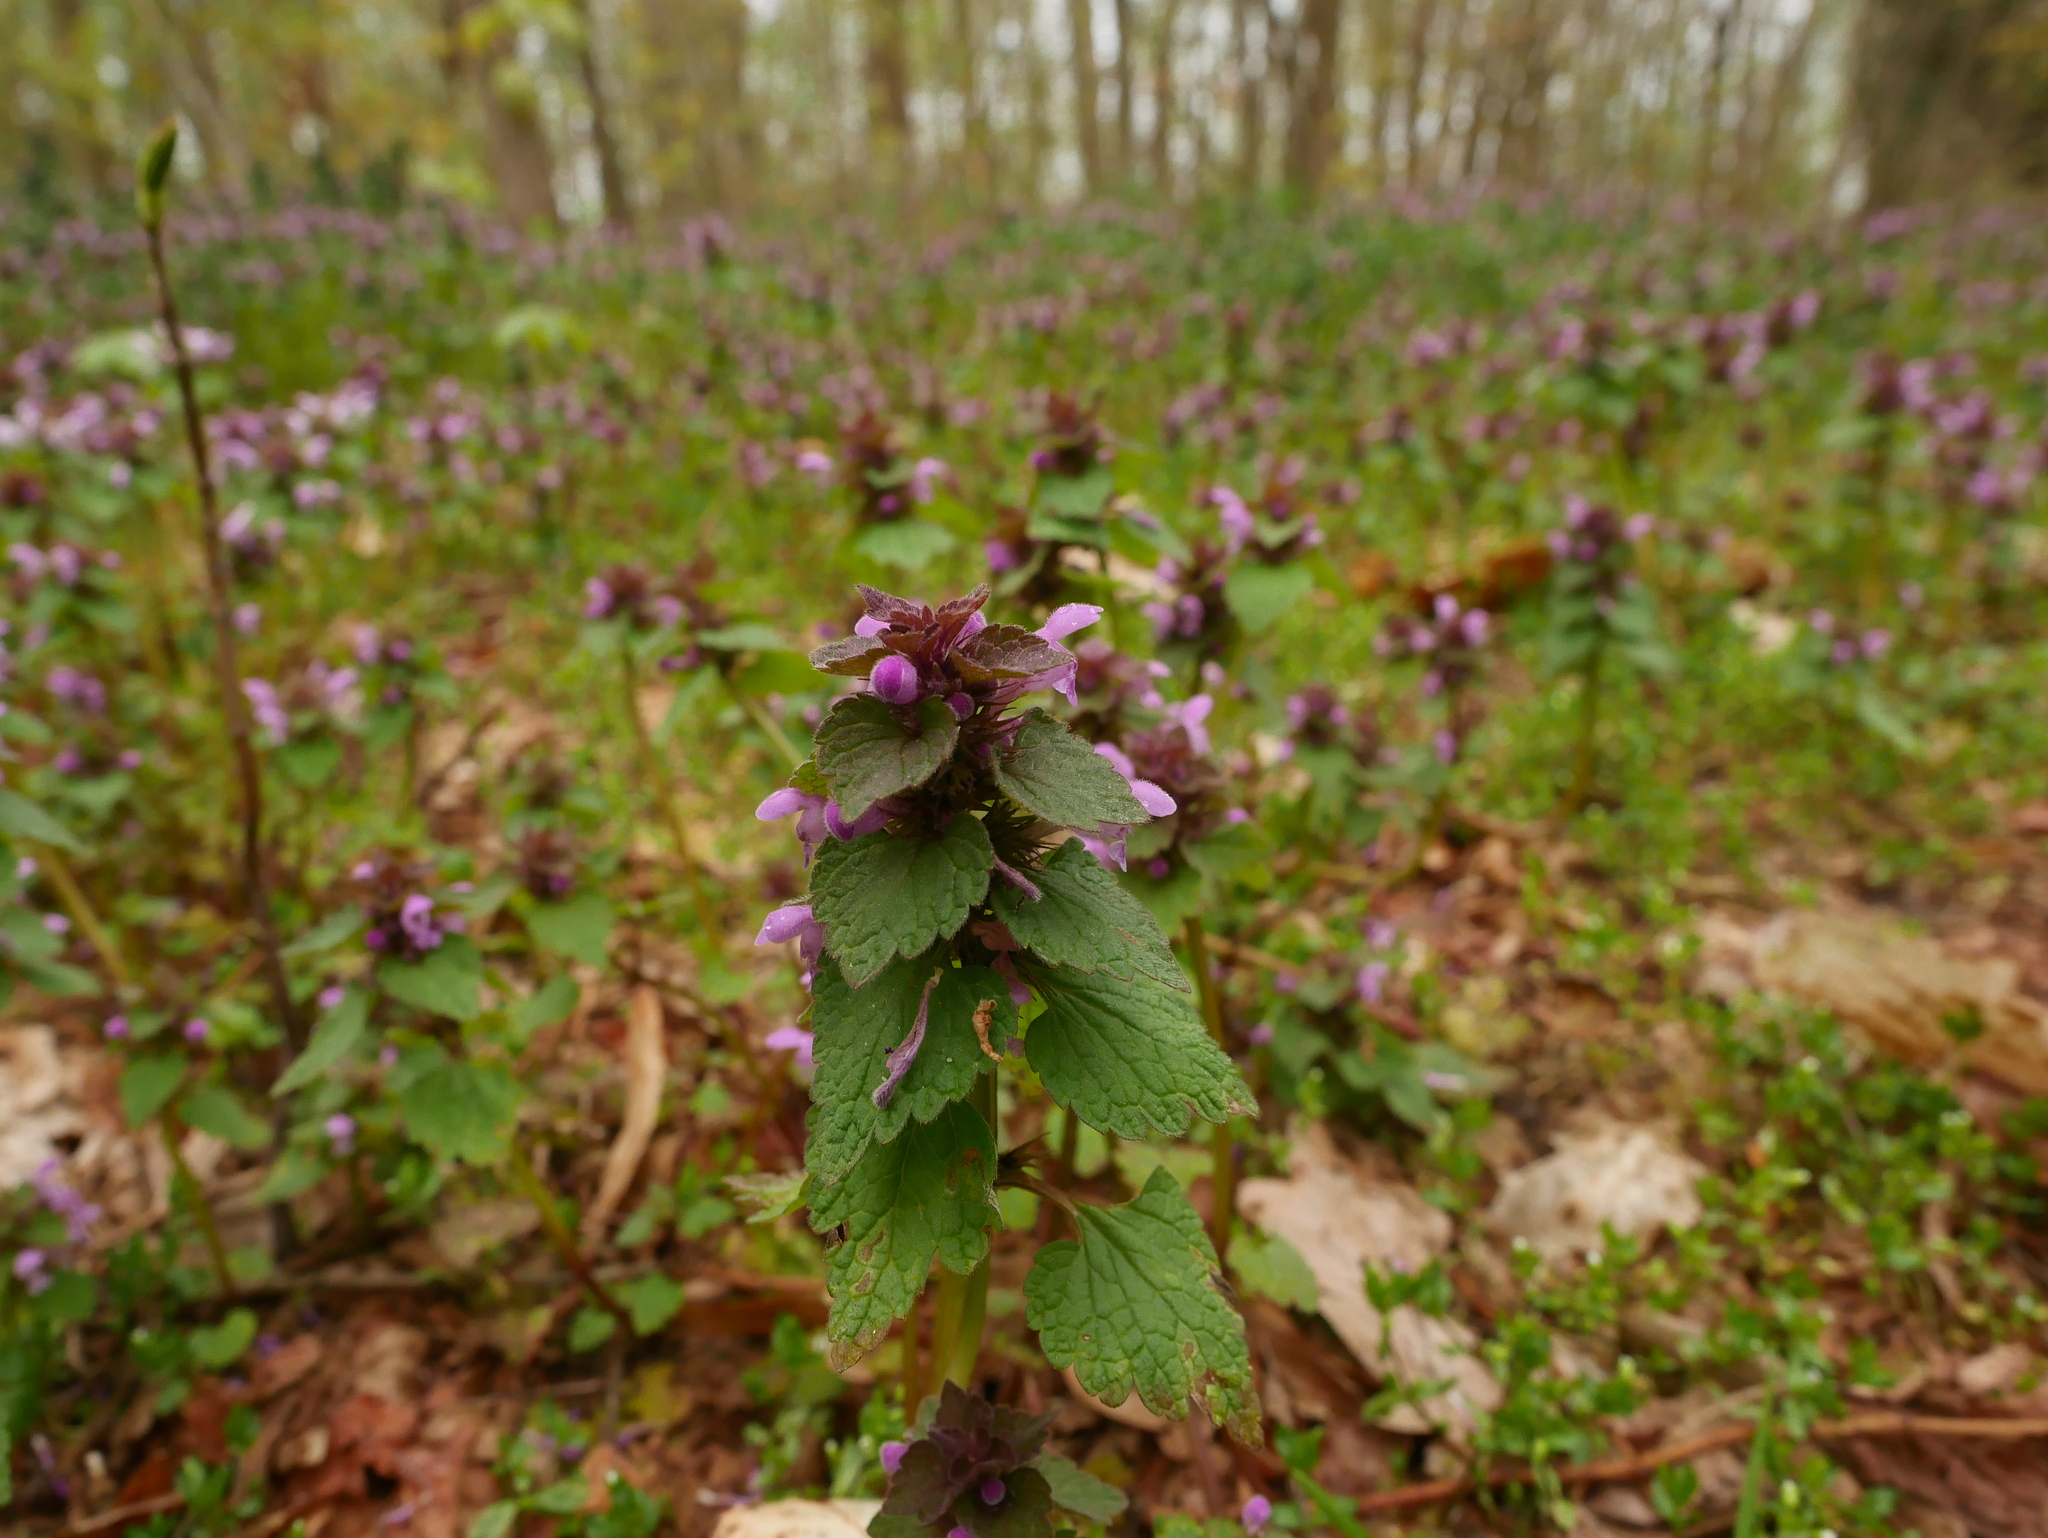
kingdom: Plantae
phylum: Tracheophyta
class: Magnoliopsida
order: Lamiales
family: Lamiaceae
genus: Lamium
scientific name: Lamium purpureum
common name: Red dead-nettle
